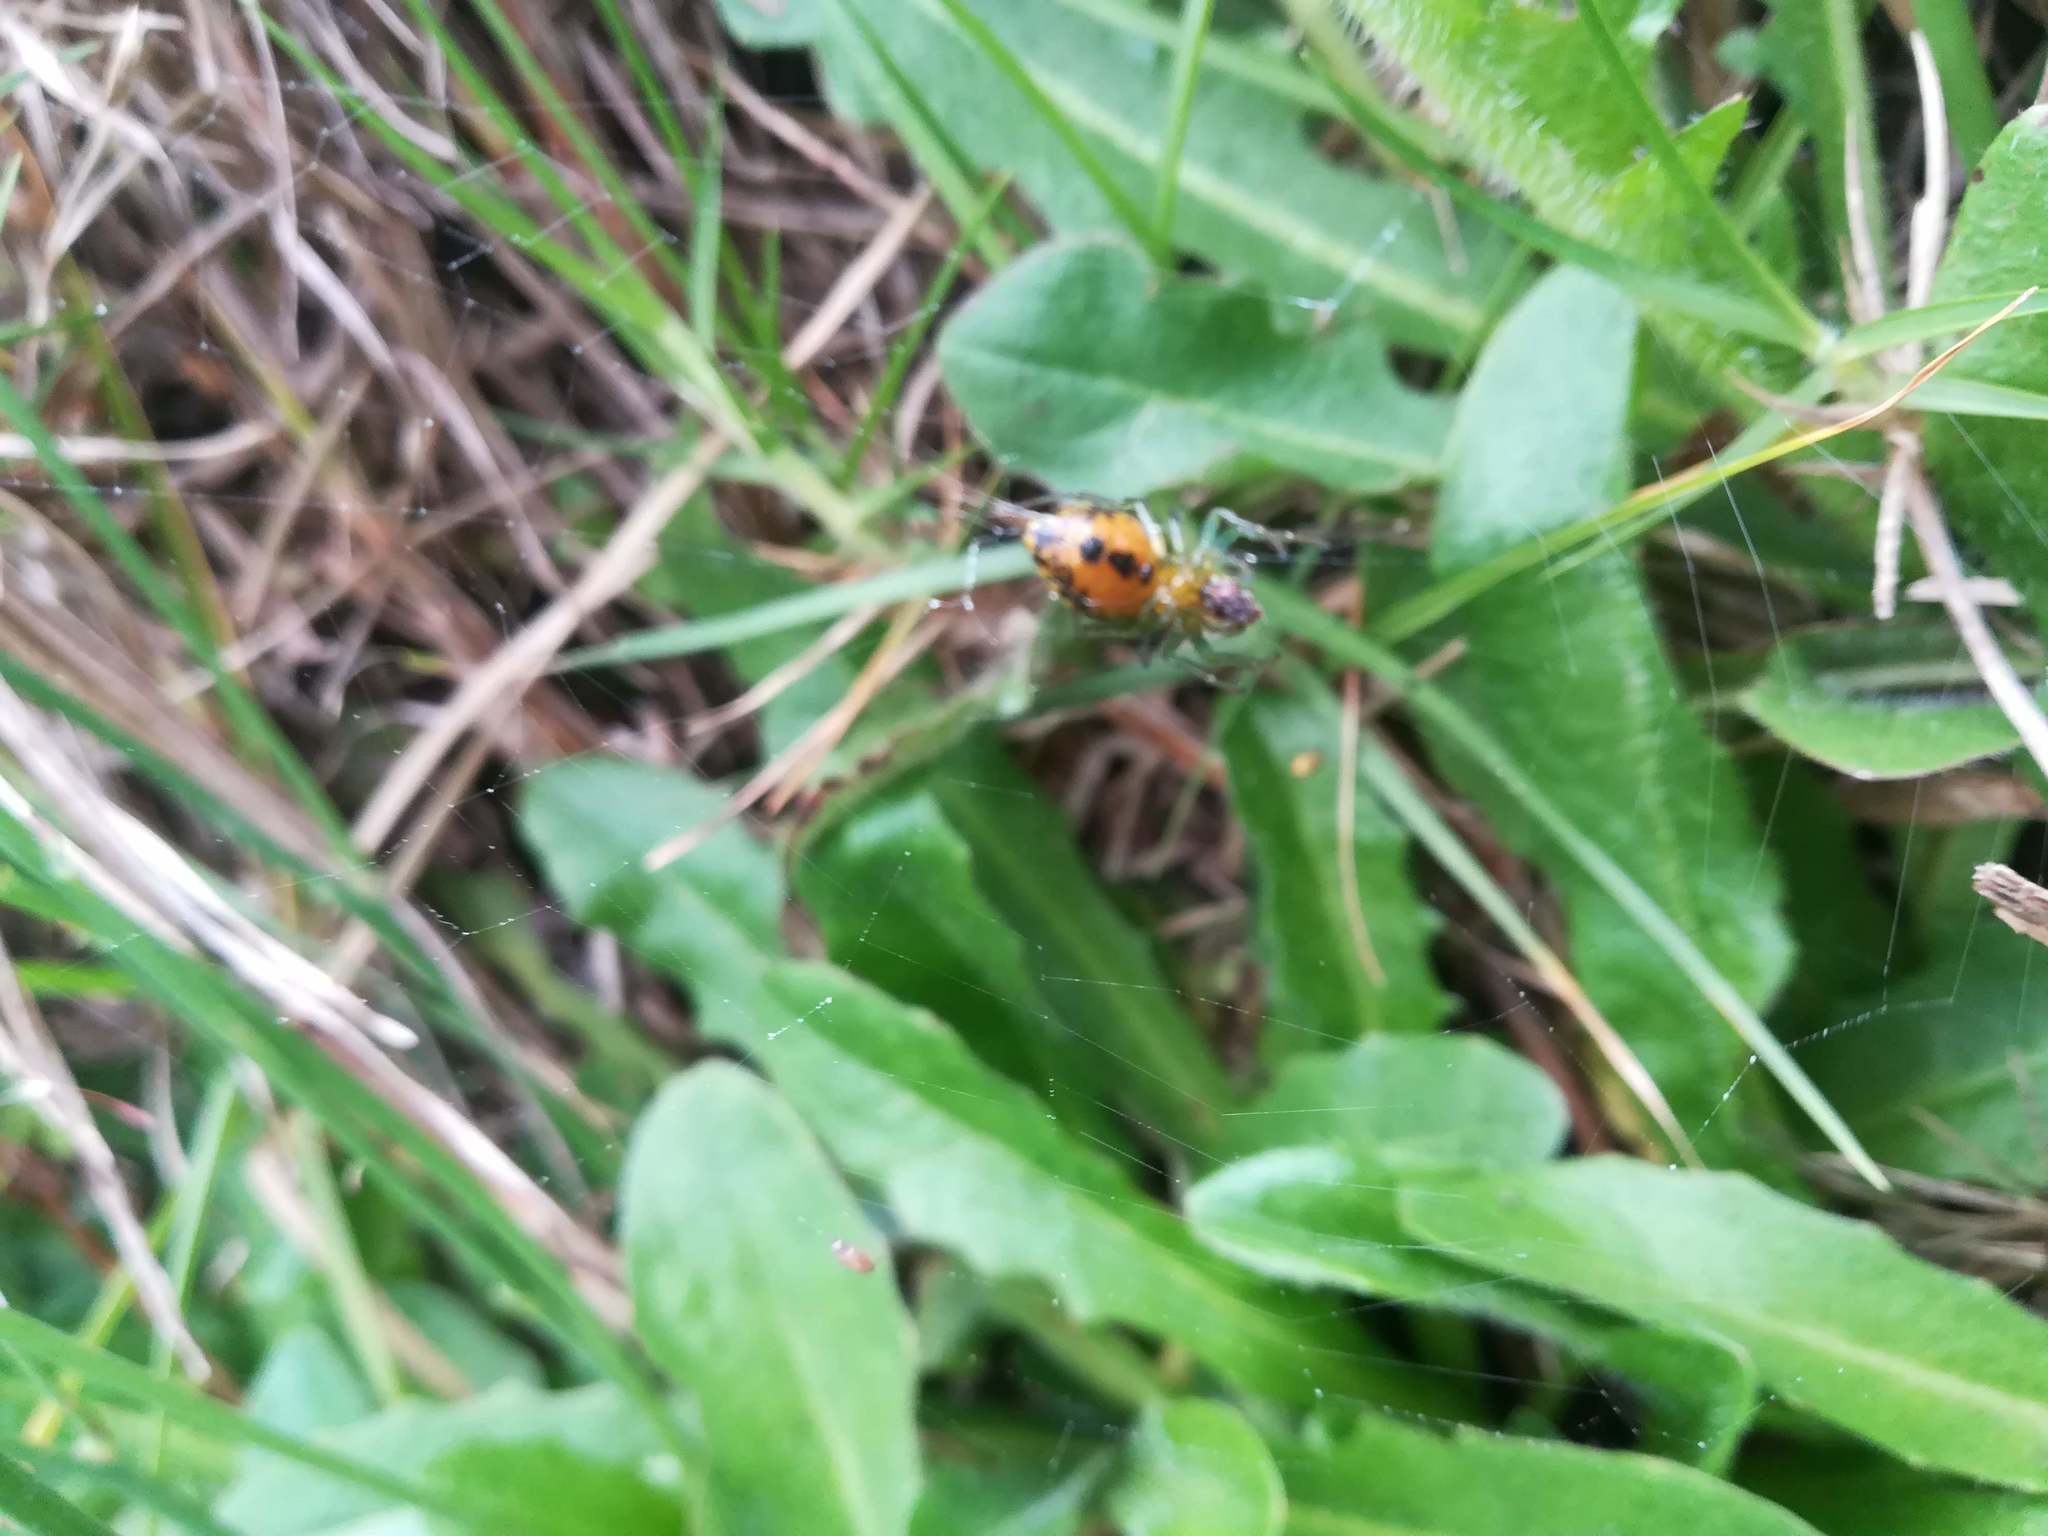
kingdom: Animalia
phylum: Arthropoda
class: Arachnida
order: Araneae
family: Araneidae
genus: Alpaida
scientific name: Alpaida variabilis
